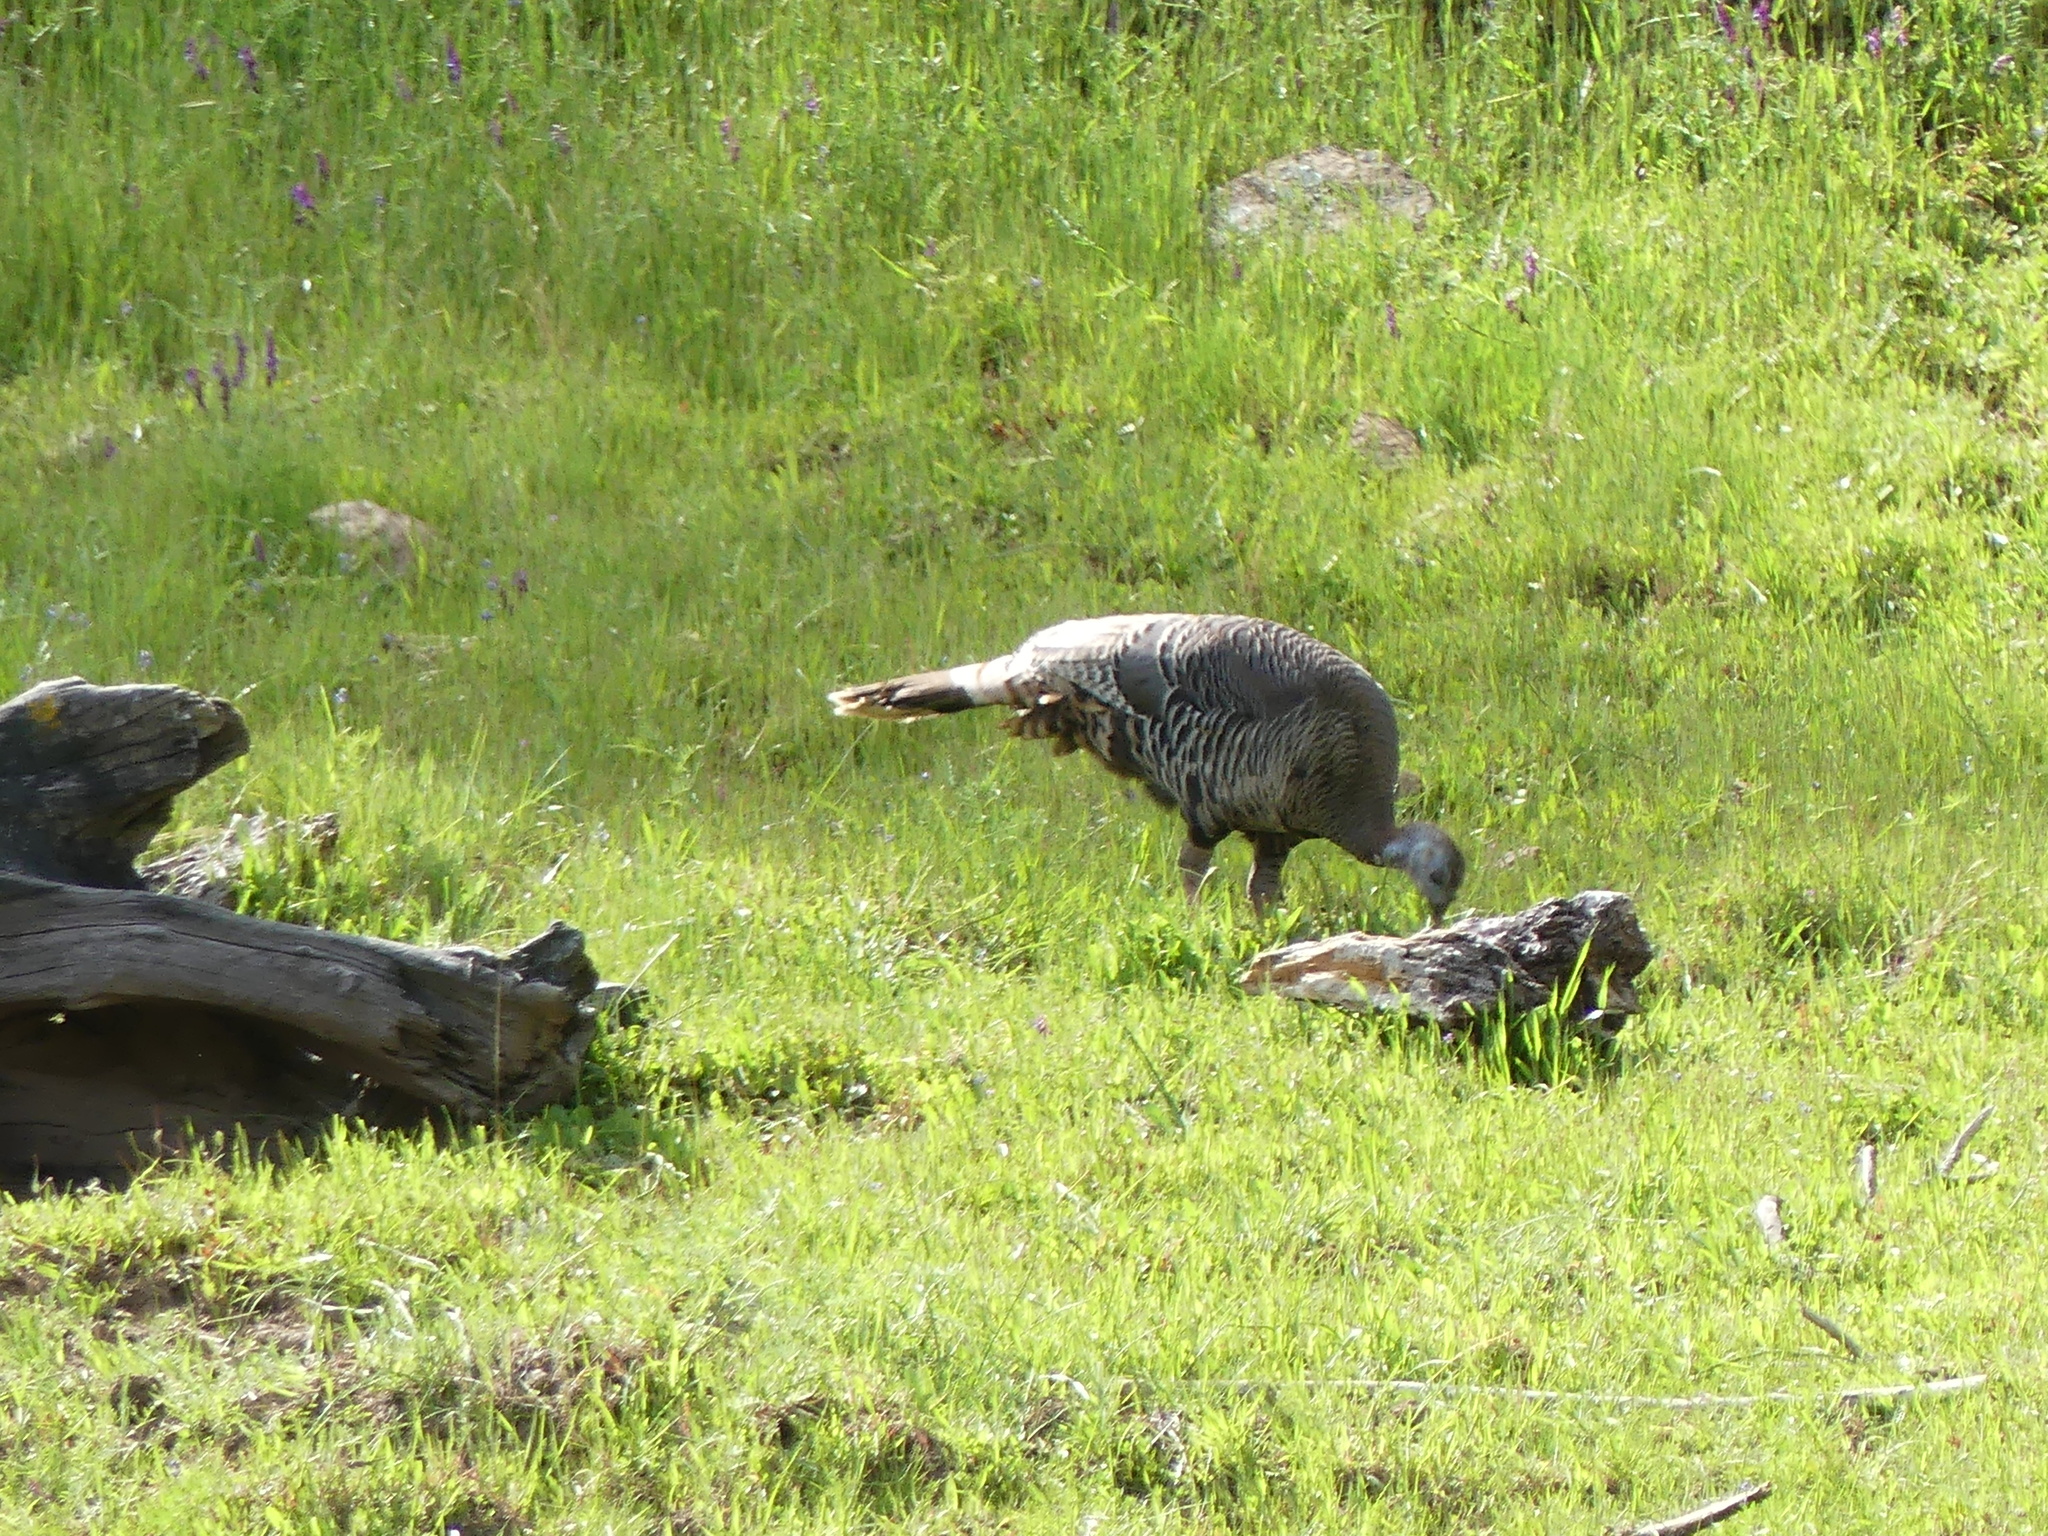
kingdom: Animalia
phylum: Chordata
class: Aves
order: Galliformes
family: Phasianidae
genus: Meleagris
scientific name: Meleagris gallopavo
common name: Wild turkey
